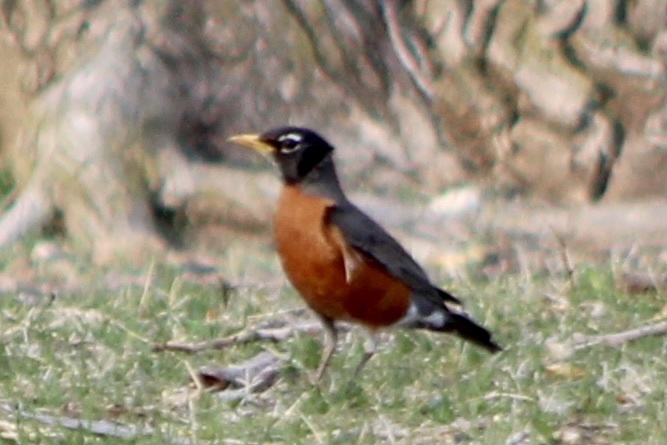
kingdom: Animalia
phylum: Chordata
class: Aves
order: Passeriformes
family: Turdidae
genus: Turdus
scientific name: Turdus migratorius
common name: American robin
